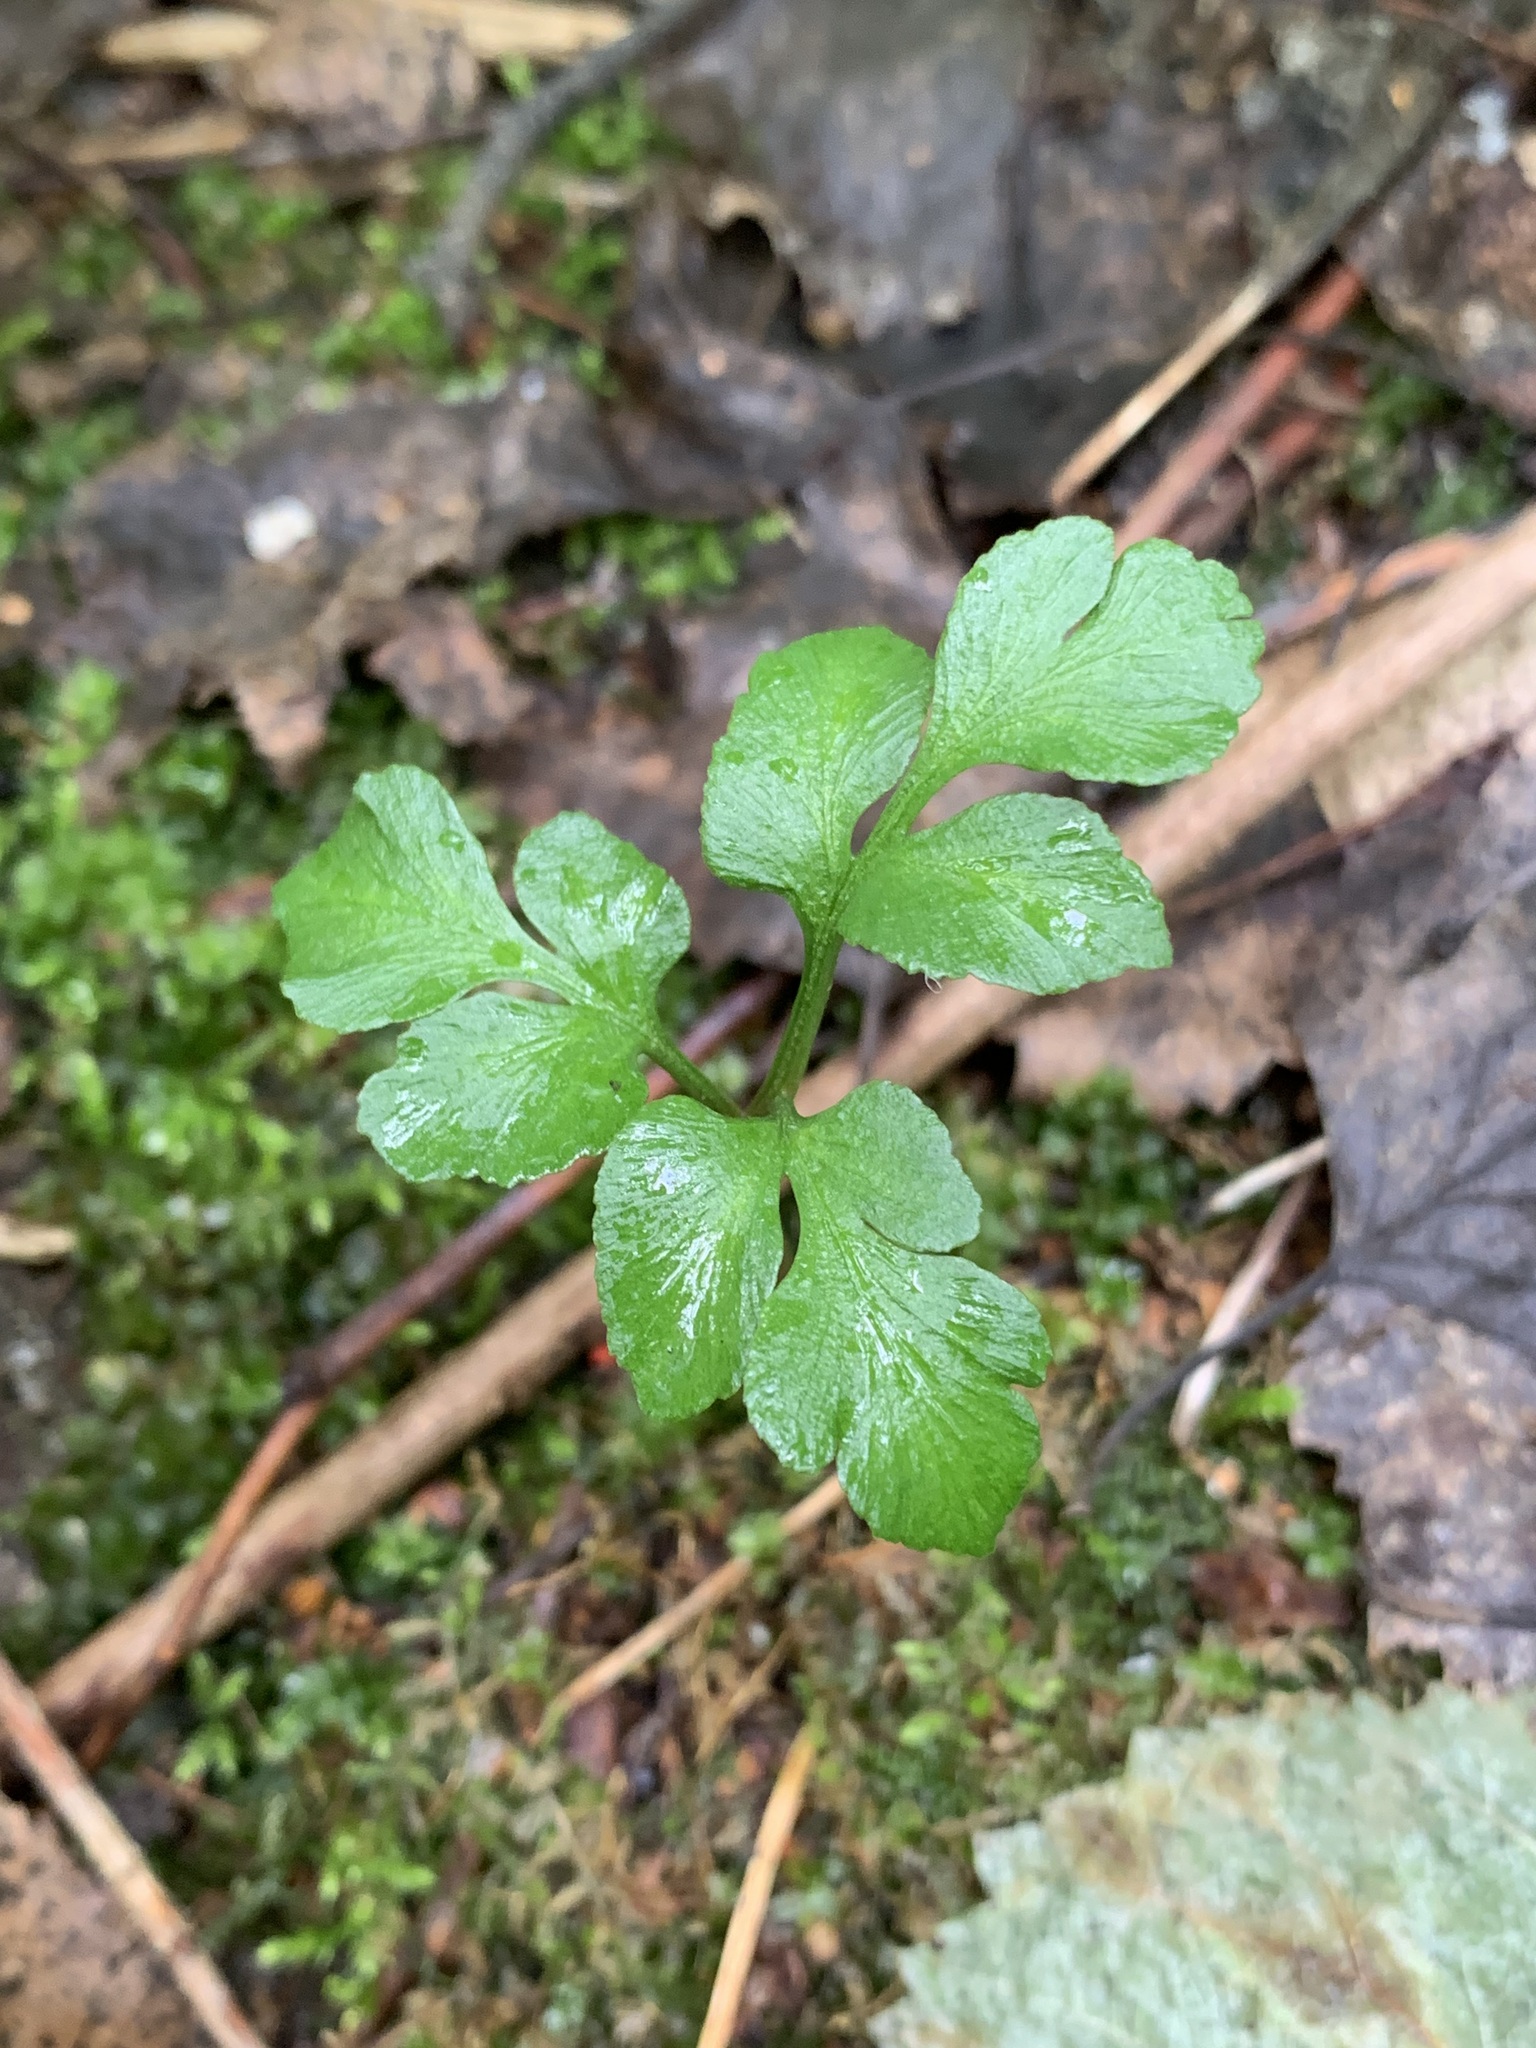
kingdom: Plantae
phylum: Tracheophyta
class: Polypodiopsida
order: Ophioglossales
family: Ophioglossaceae
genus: Sceptridium
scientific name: Sceptridium multifidum
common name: Leathery grape fern
